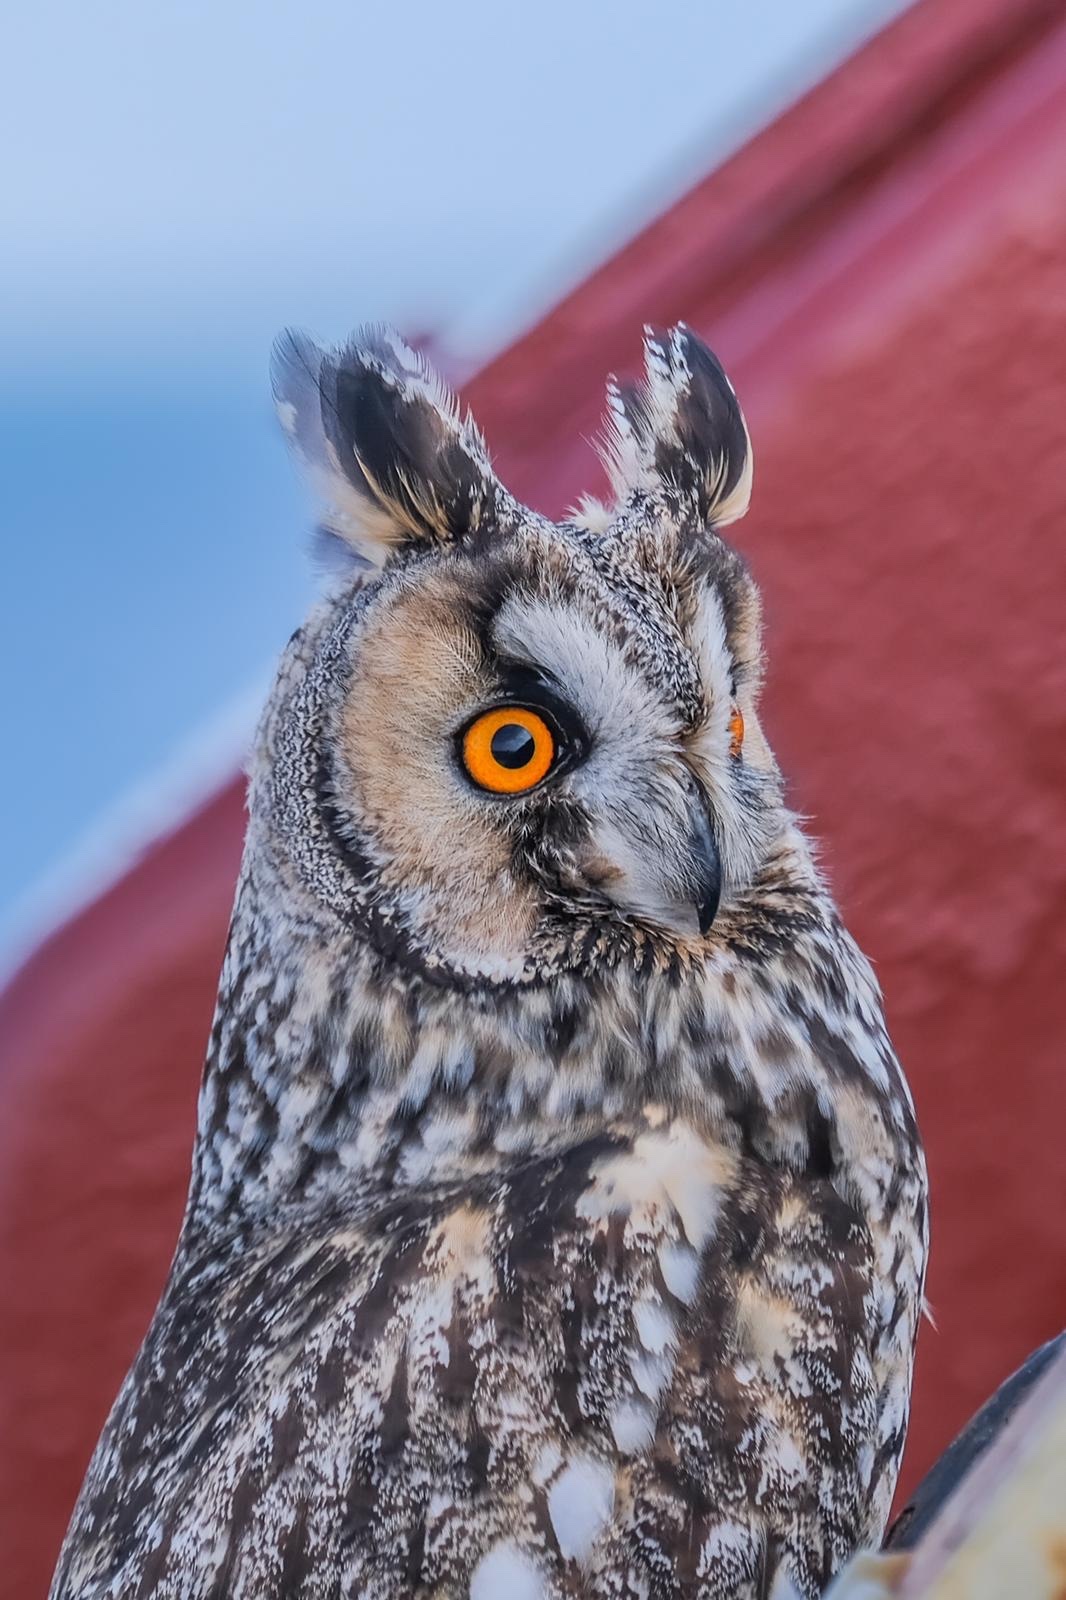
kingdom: Animalia
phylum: Chordata
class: Aves
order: Strigiformes
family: Strigidae
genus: Asio
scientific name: Asio otus
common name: Long-eared owl
